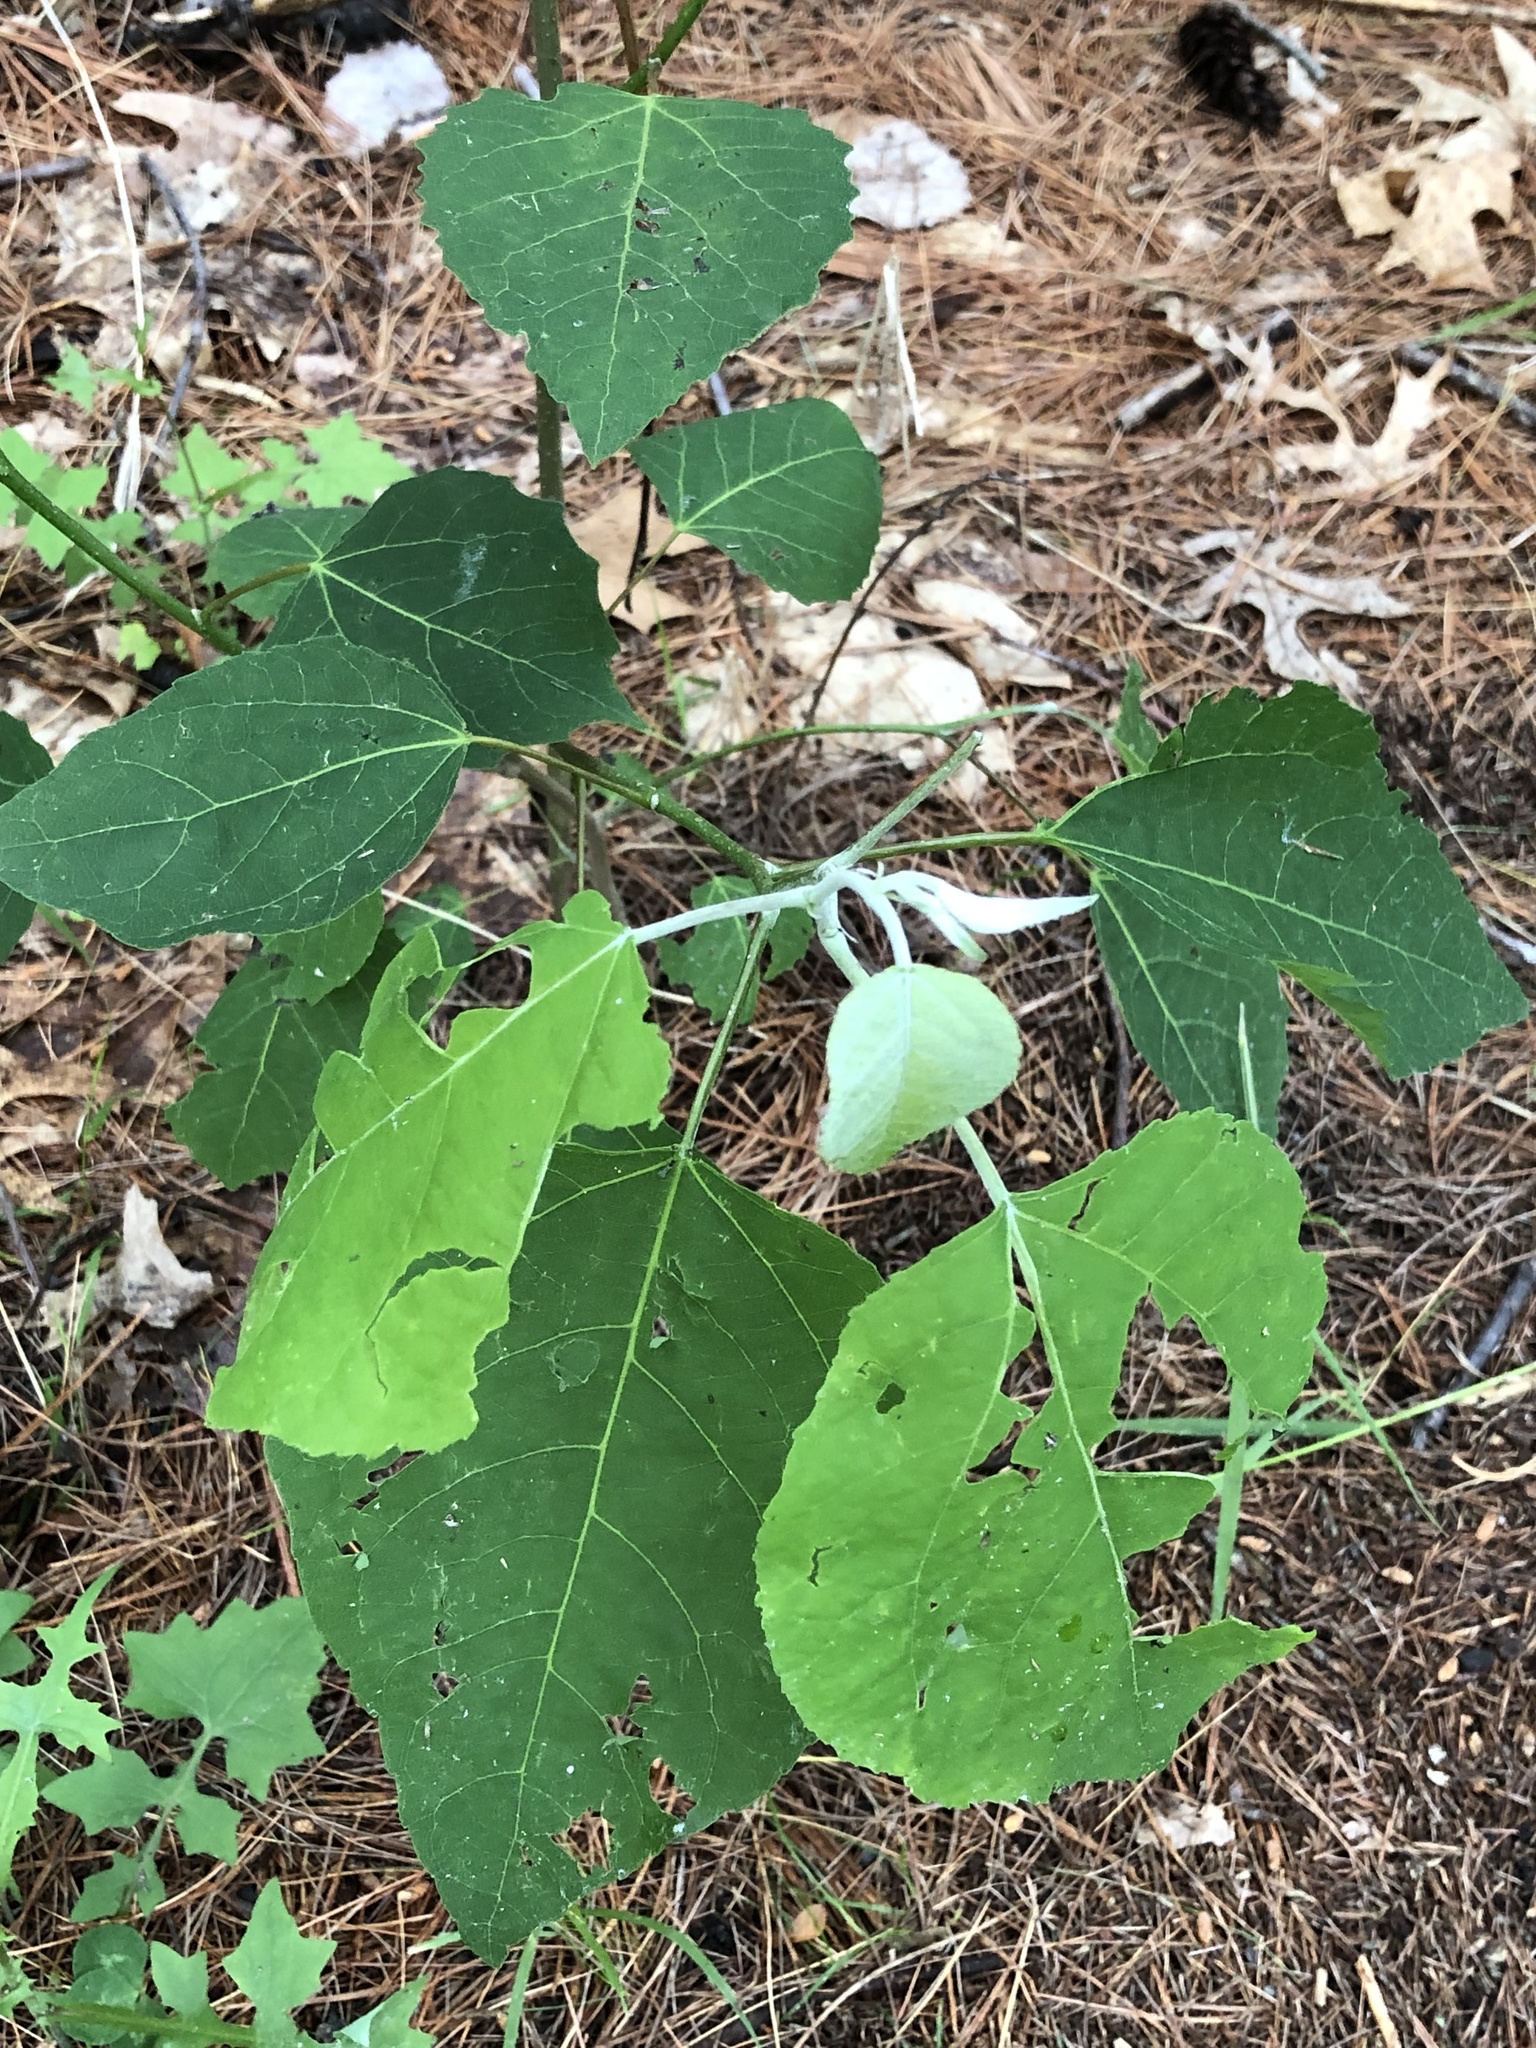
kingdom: Plantae
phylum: Tracheophyta
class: Magnoliopsida
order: Malpighiales
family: Salicaceae
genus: Populus
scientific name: Populus grandidentata
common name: Bigtooth aspen
